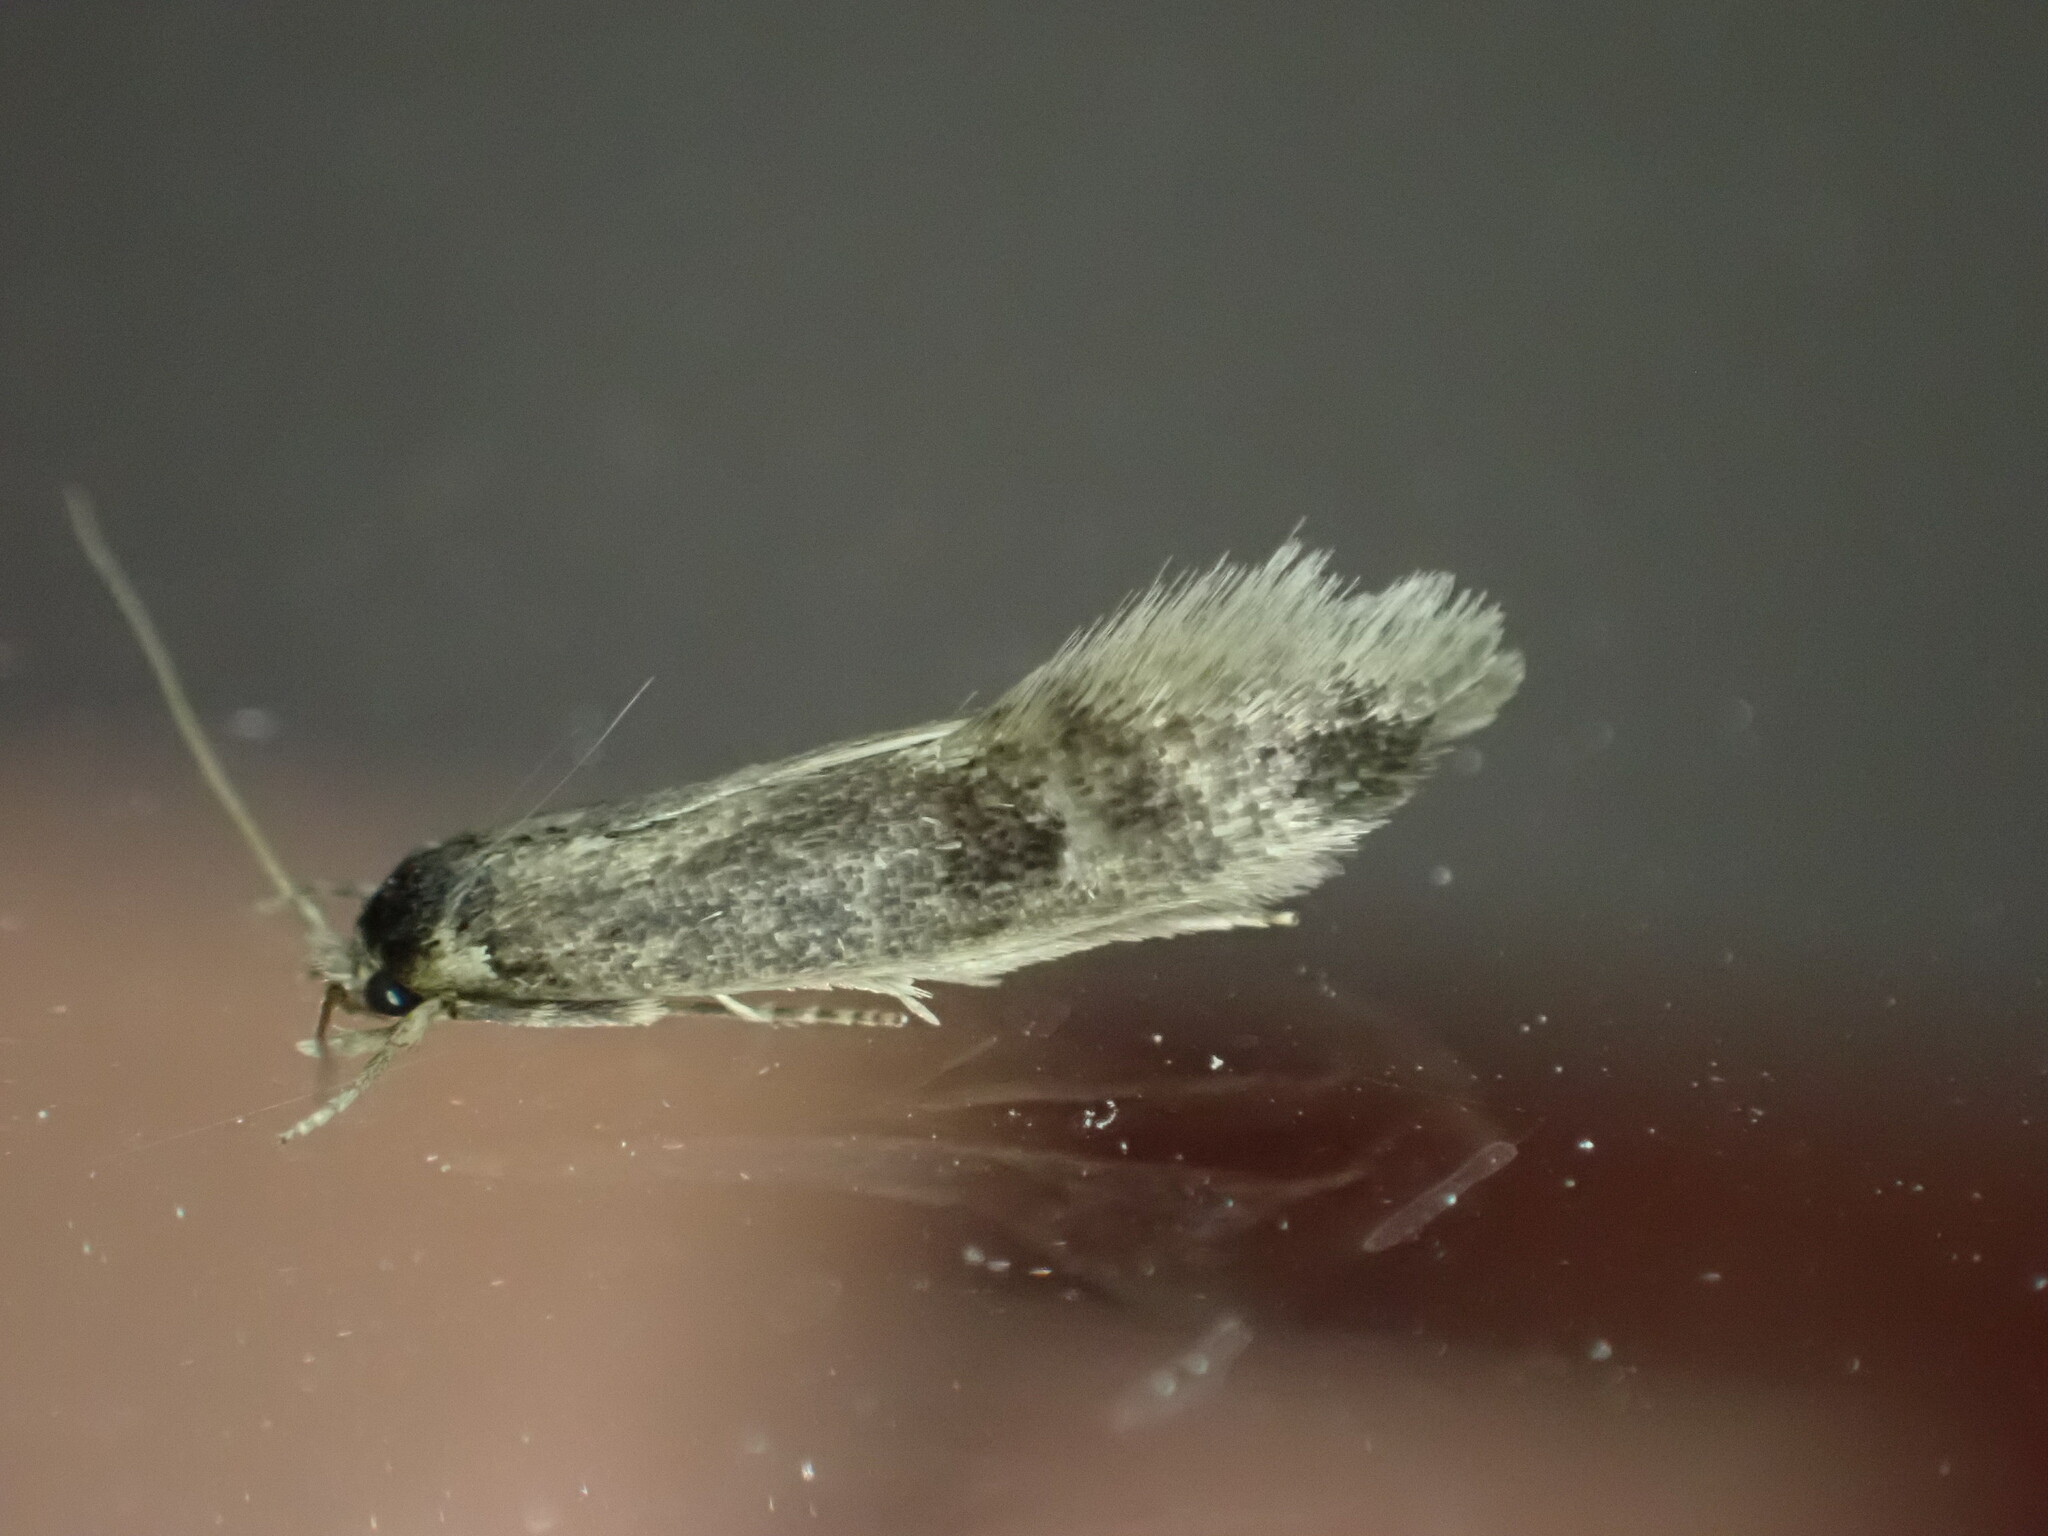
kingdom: Animalia
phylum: Arthropoda
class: Insecta
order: Lepidoptera
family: Tineidae
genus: Opogona
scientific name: Opogona omoscopa
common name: Moth
